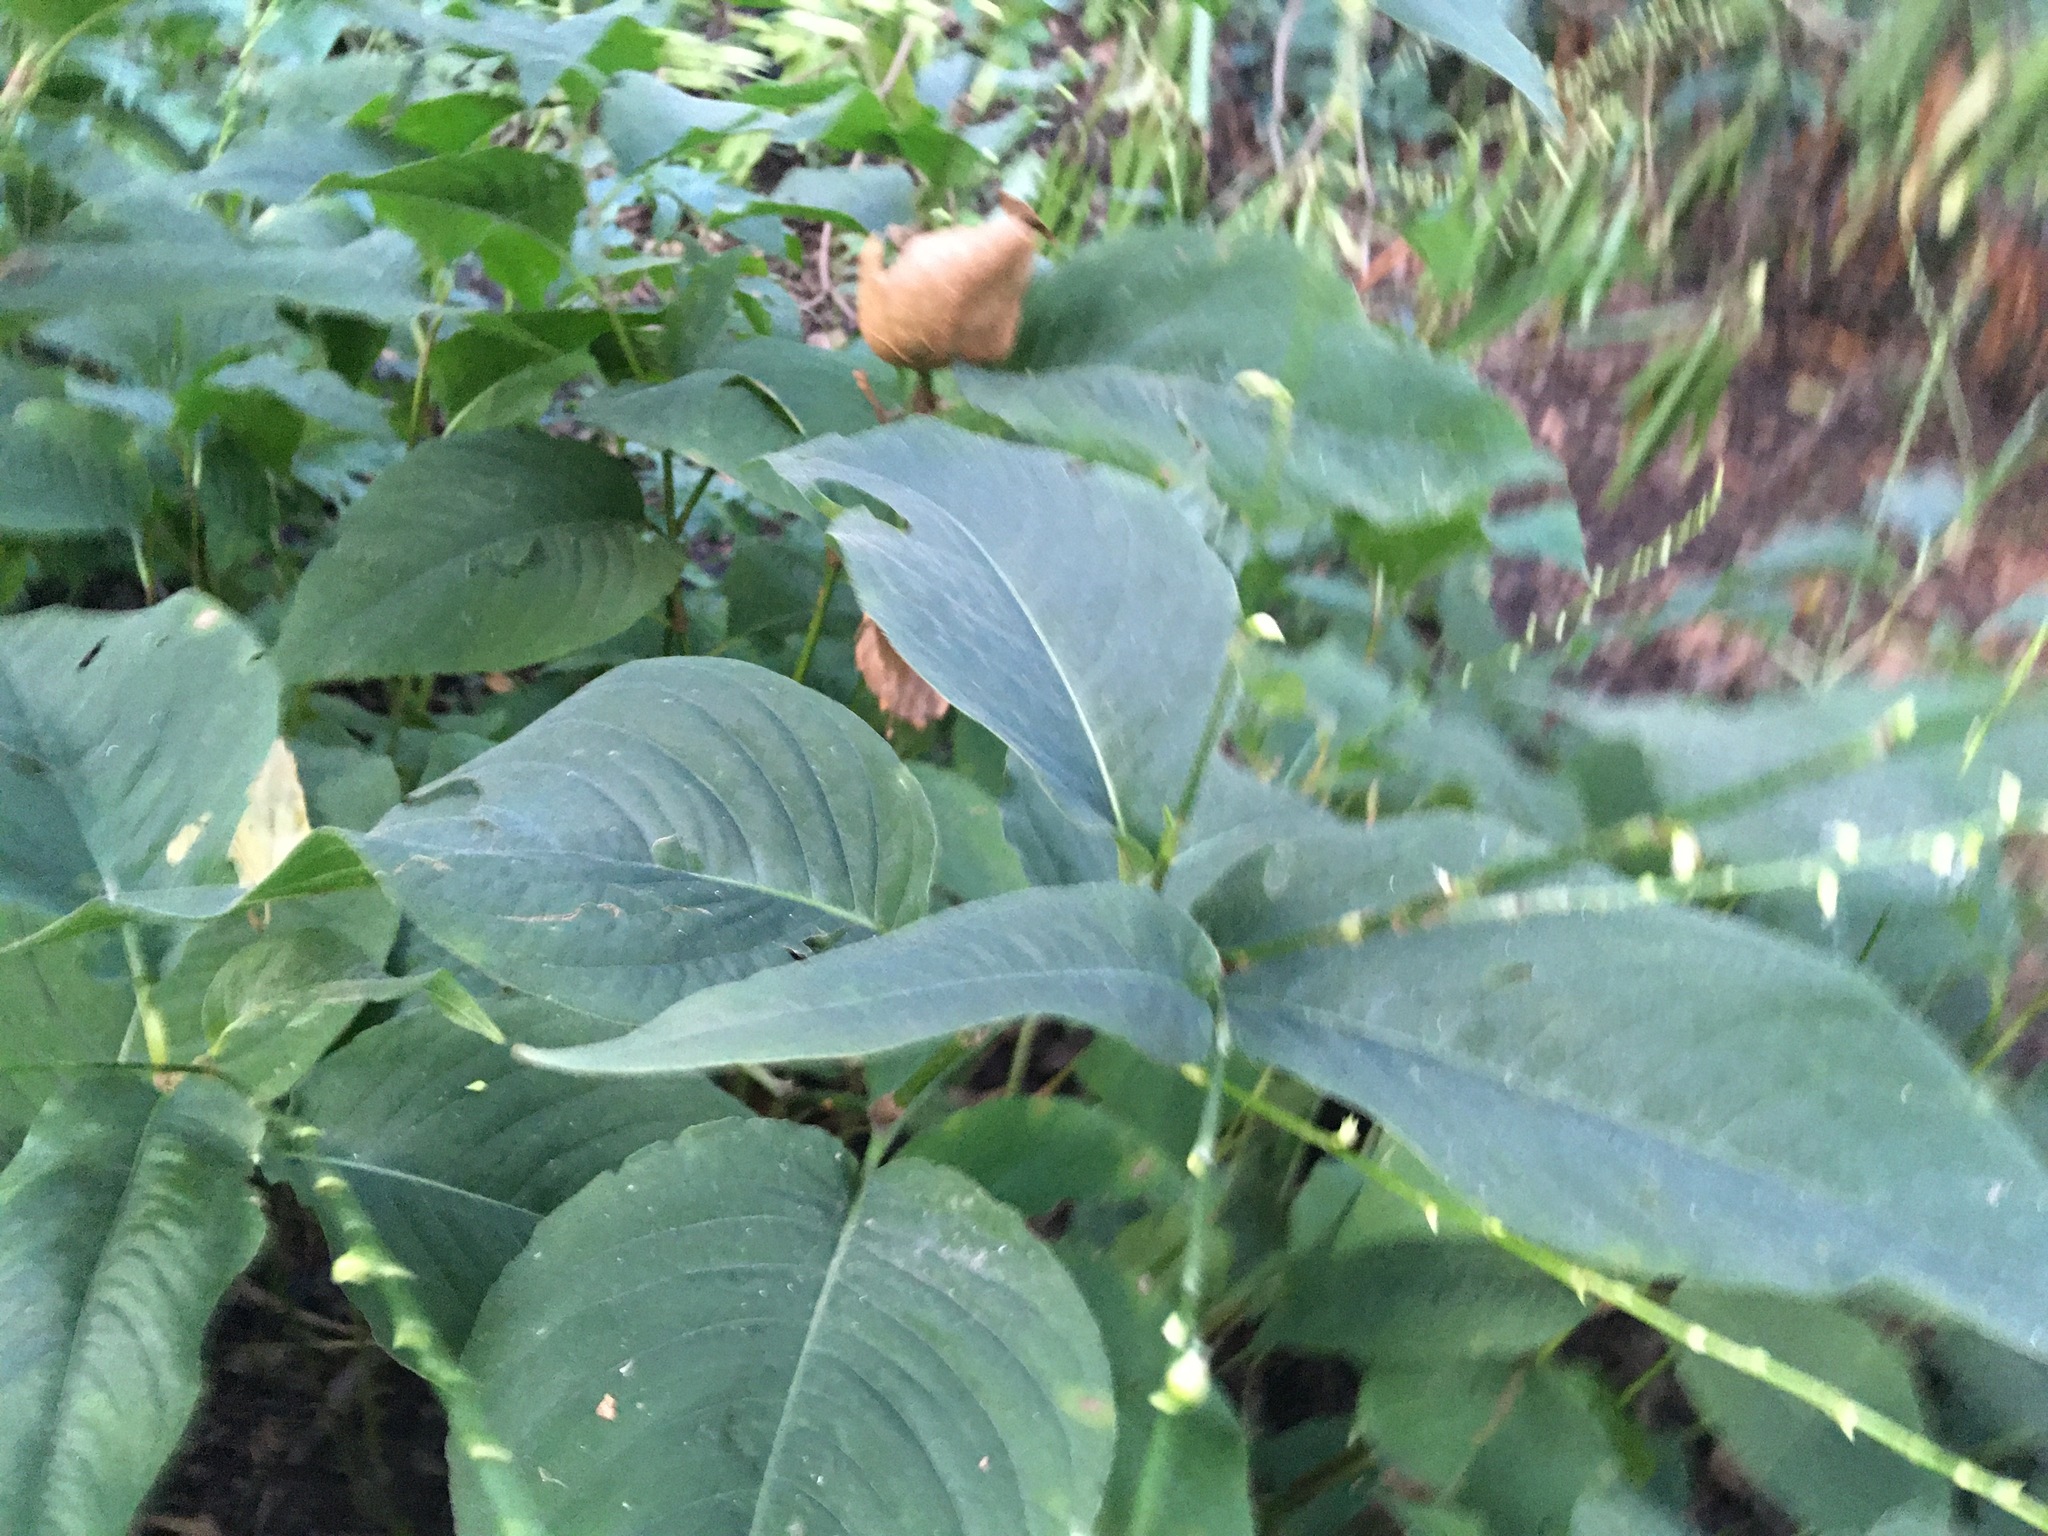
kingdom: Plantae
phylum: Tracheophyta
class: Magnoliopsida
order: Caryophyllales
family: Polygonaceae
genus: Persicaria
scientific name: Persicaria virginiana
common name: Jumpseed
